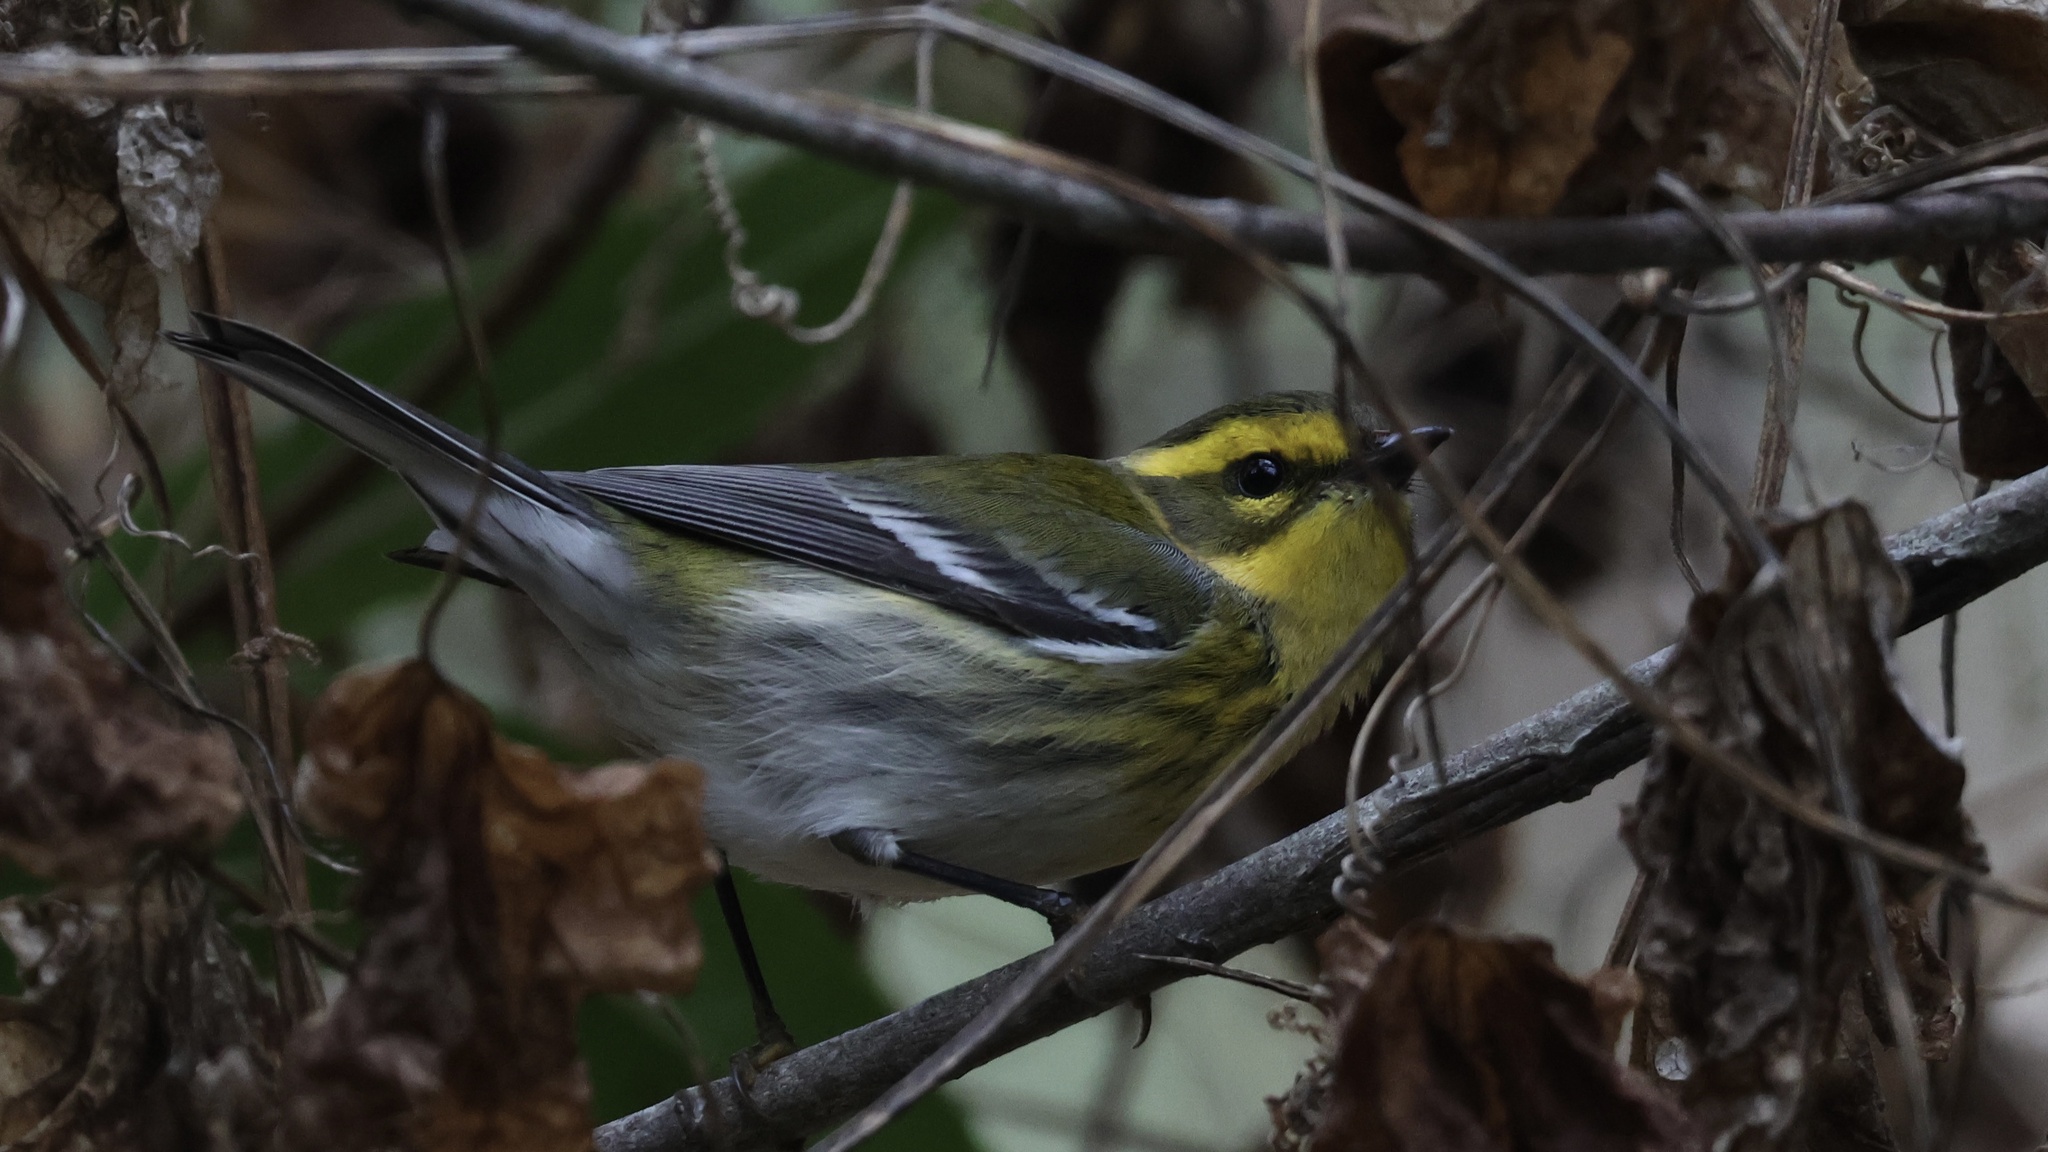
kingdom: Animalia
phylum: Chordata
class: Aves
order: Passeriformes
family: Parulidae
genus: Setophaga
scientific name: Setophaga townsendi
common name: Townsend's warbler
